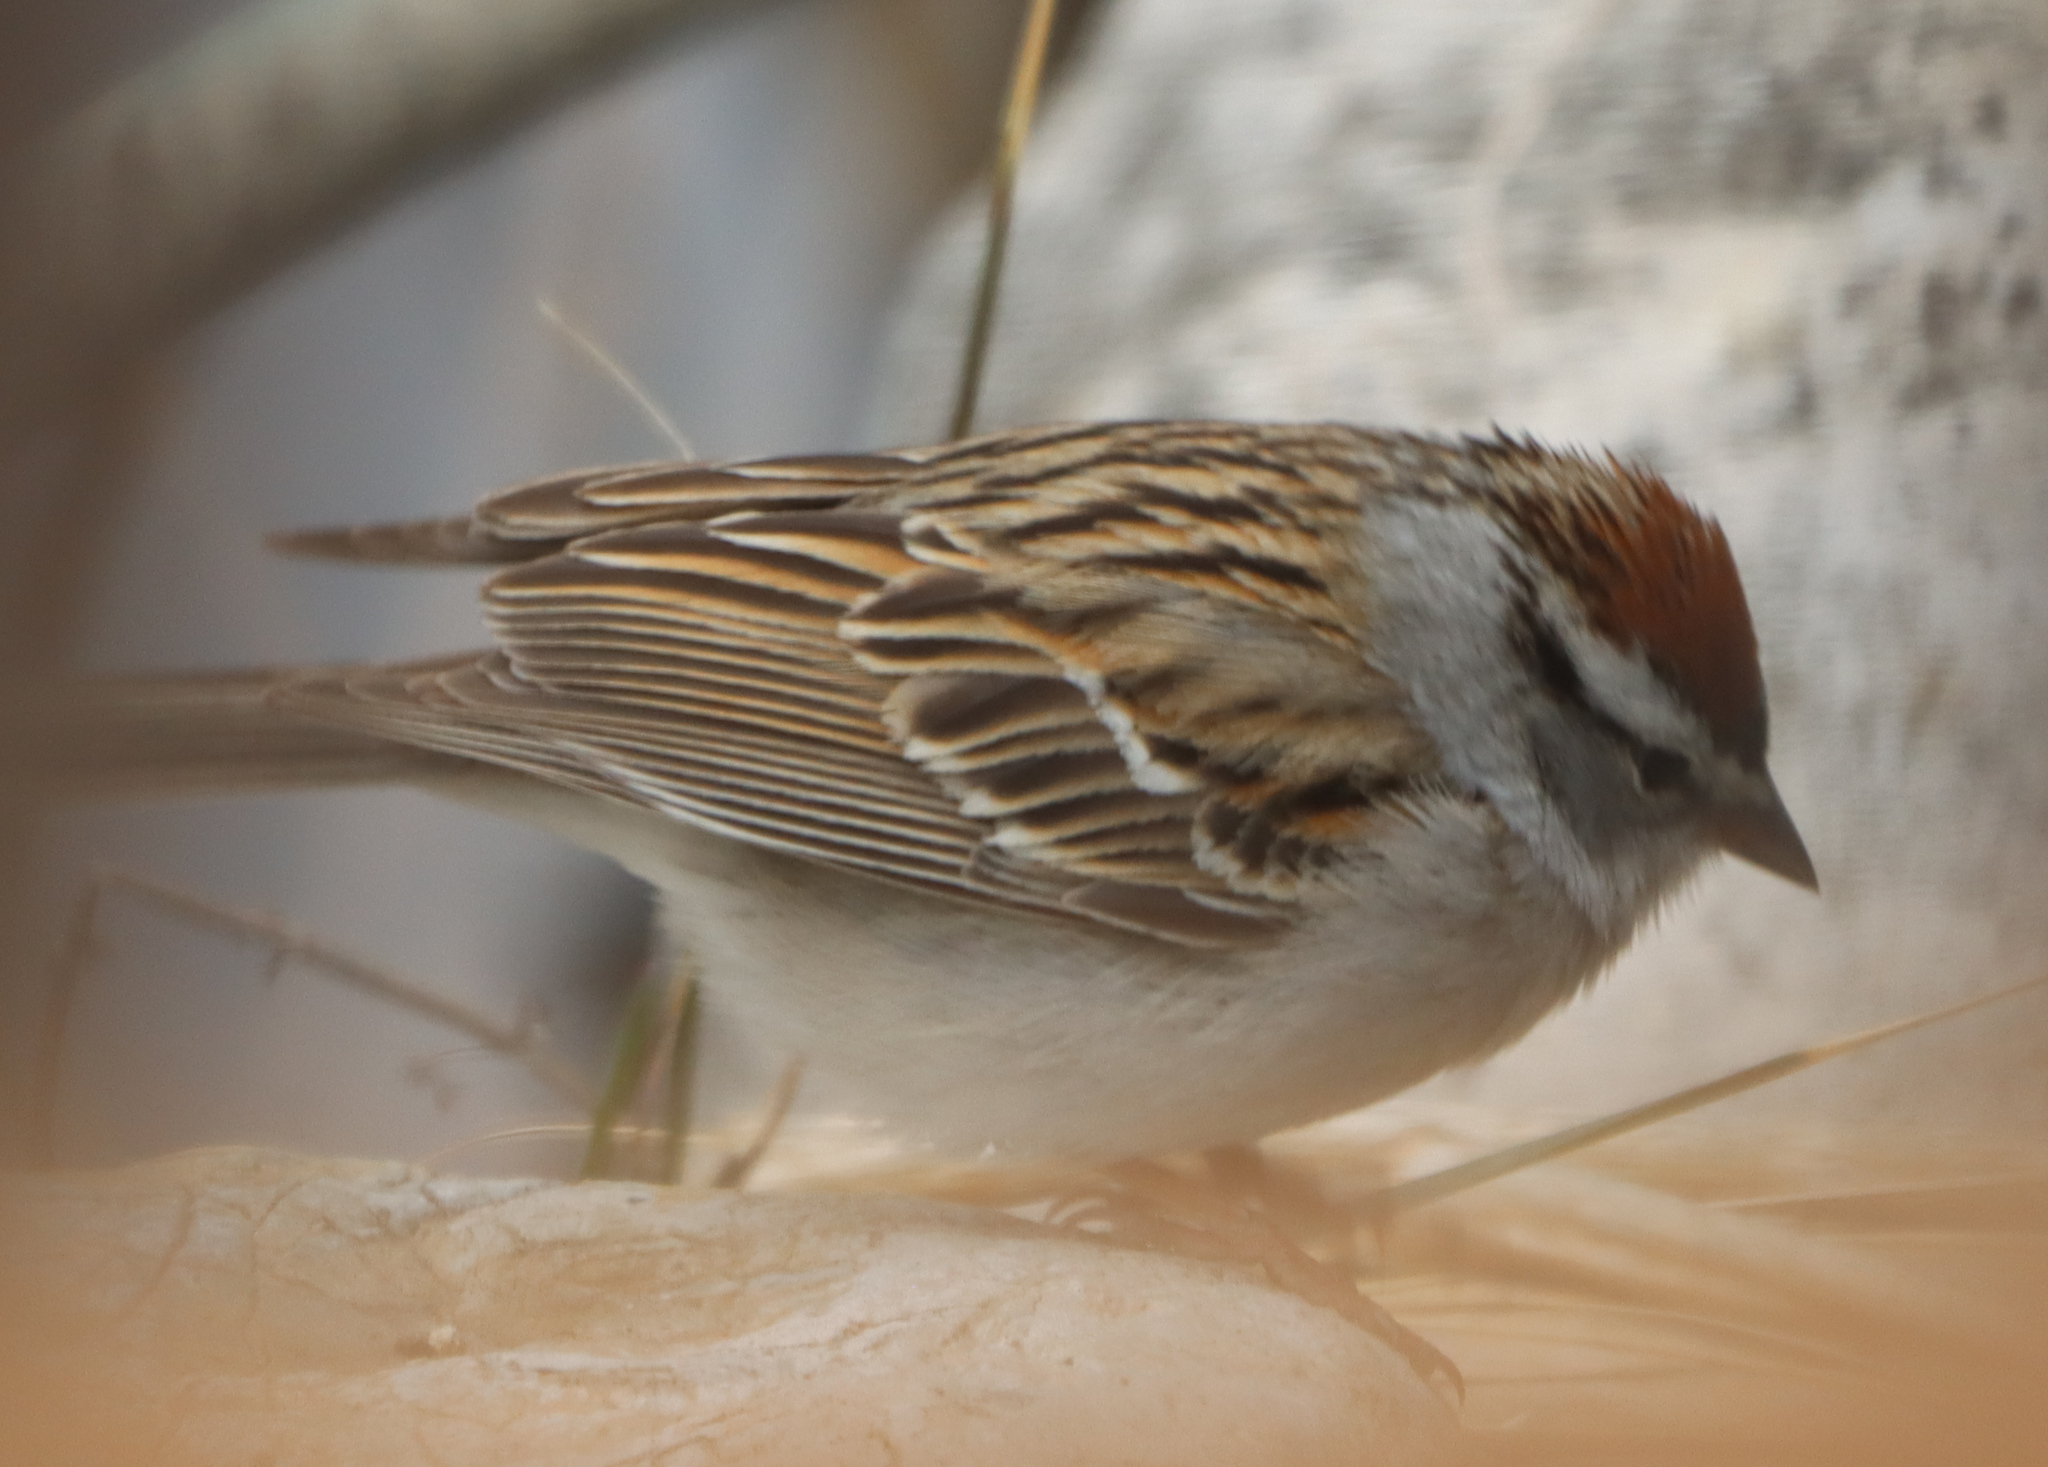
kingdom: Animalia
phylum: Chordata
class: Aves
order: Passeriformes
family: Passerellidae
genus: Spizella
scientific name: Spizella passerina
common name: Chipping sparrow
